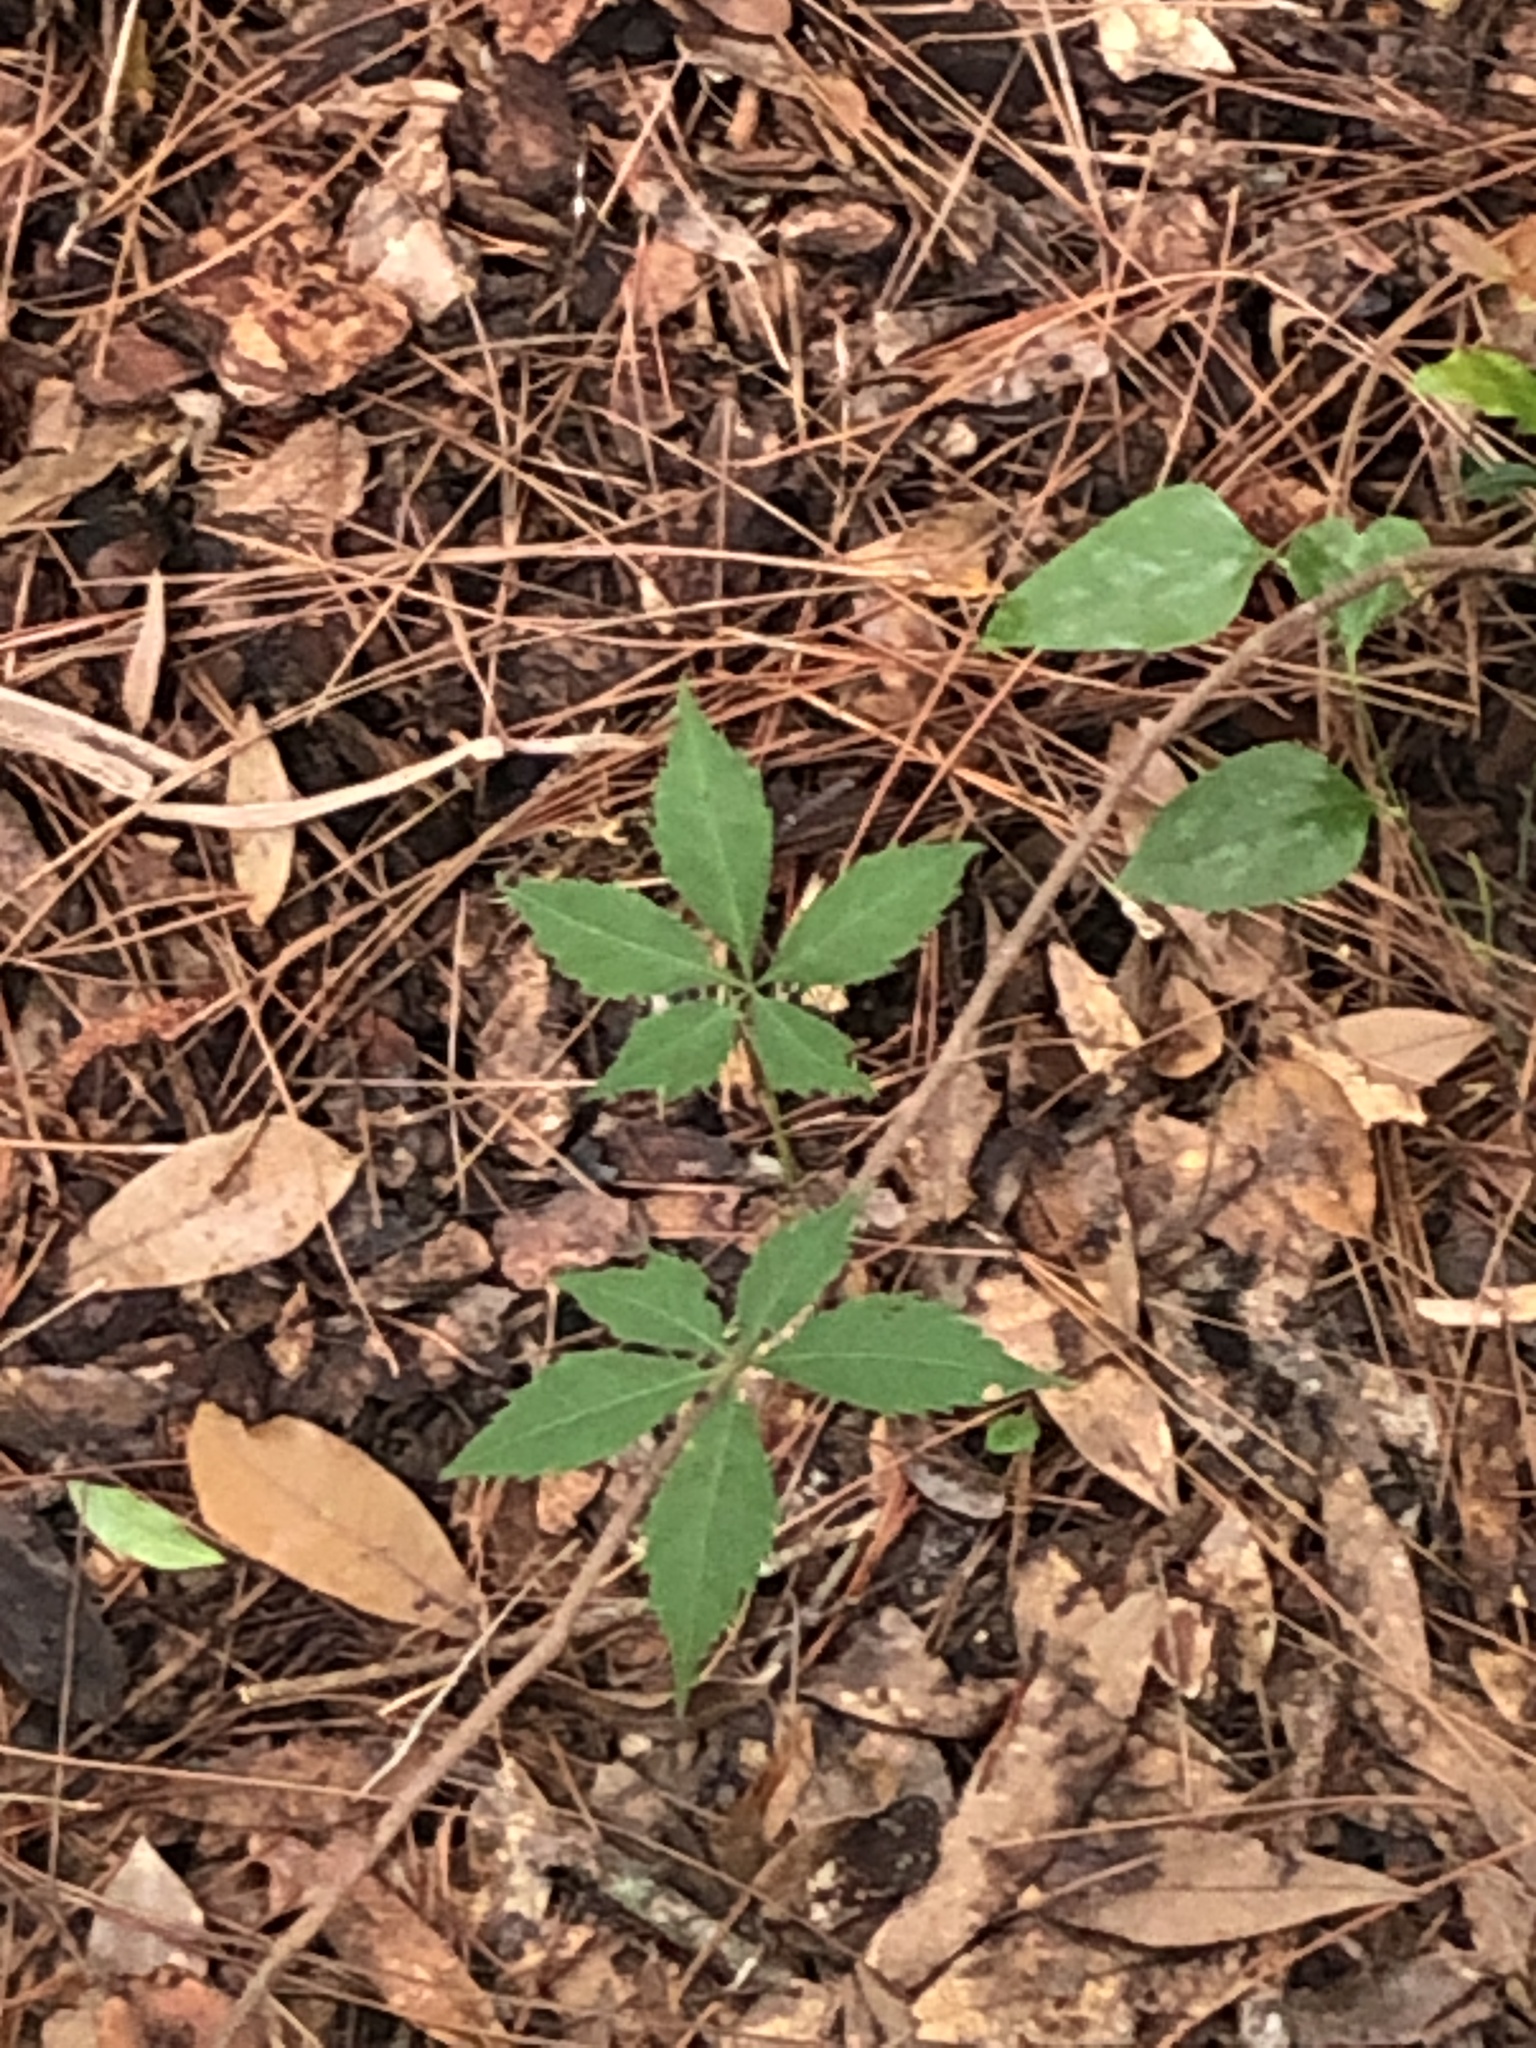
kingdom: Plantae
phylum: Tracheophyta
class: Magnoliopsida
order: Vitales
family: Vitaceae
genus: Parthenocissus
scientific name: Parthenocissus quinquefolia
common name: Virginia-creeper
